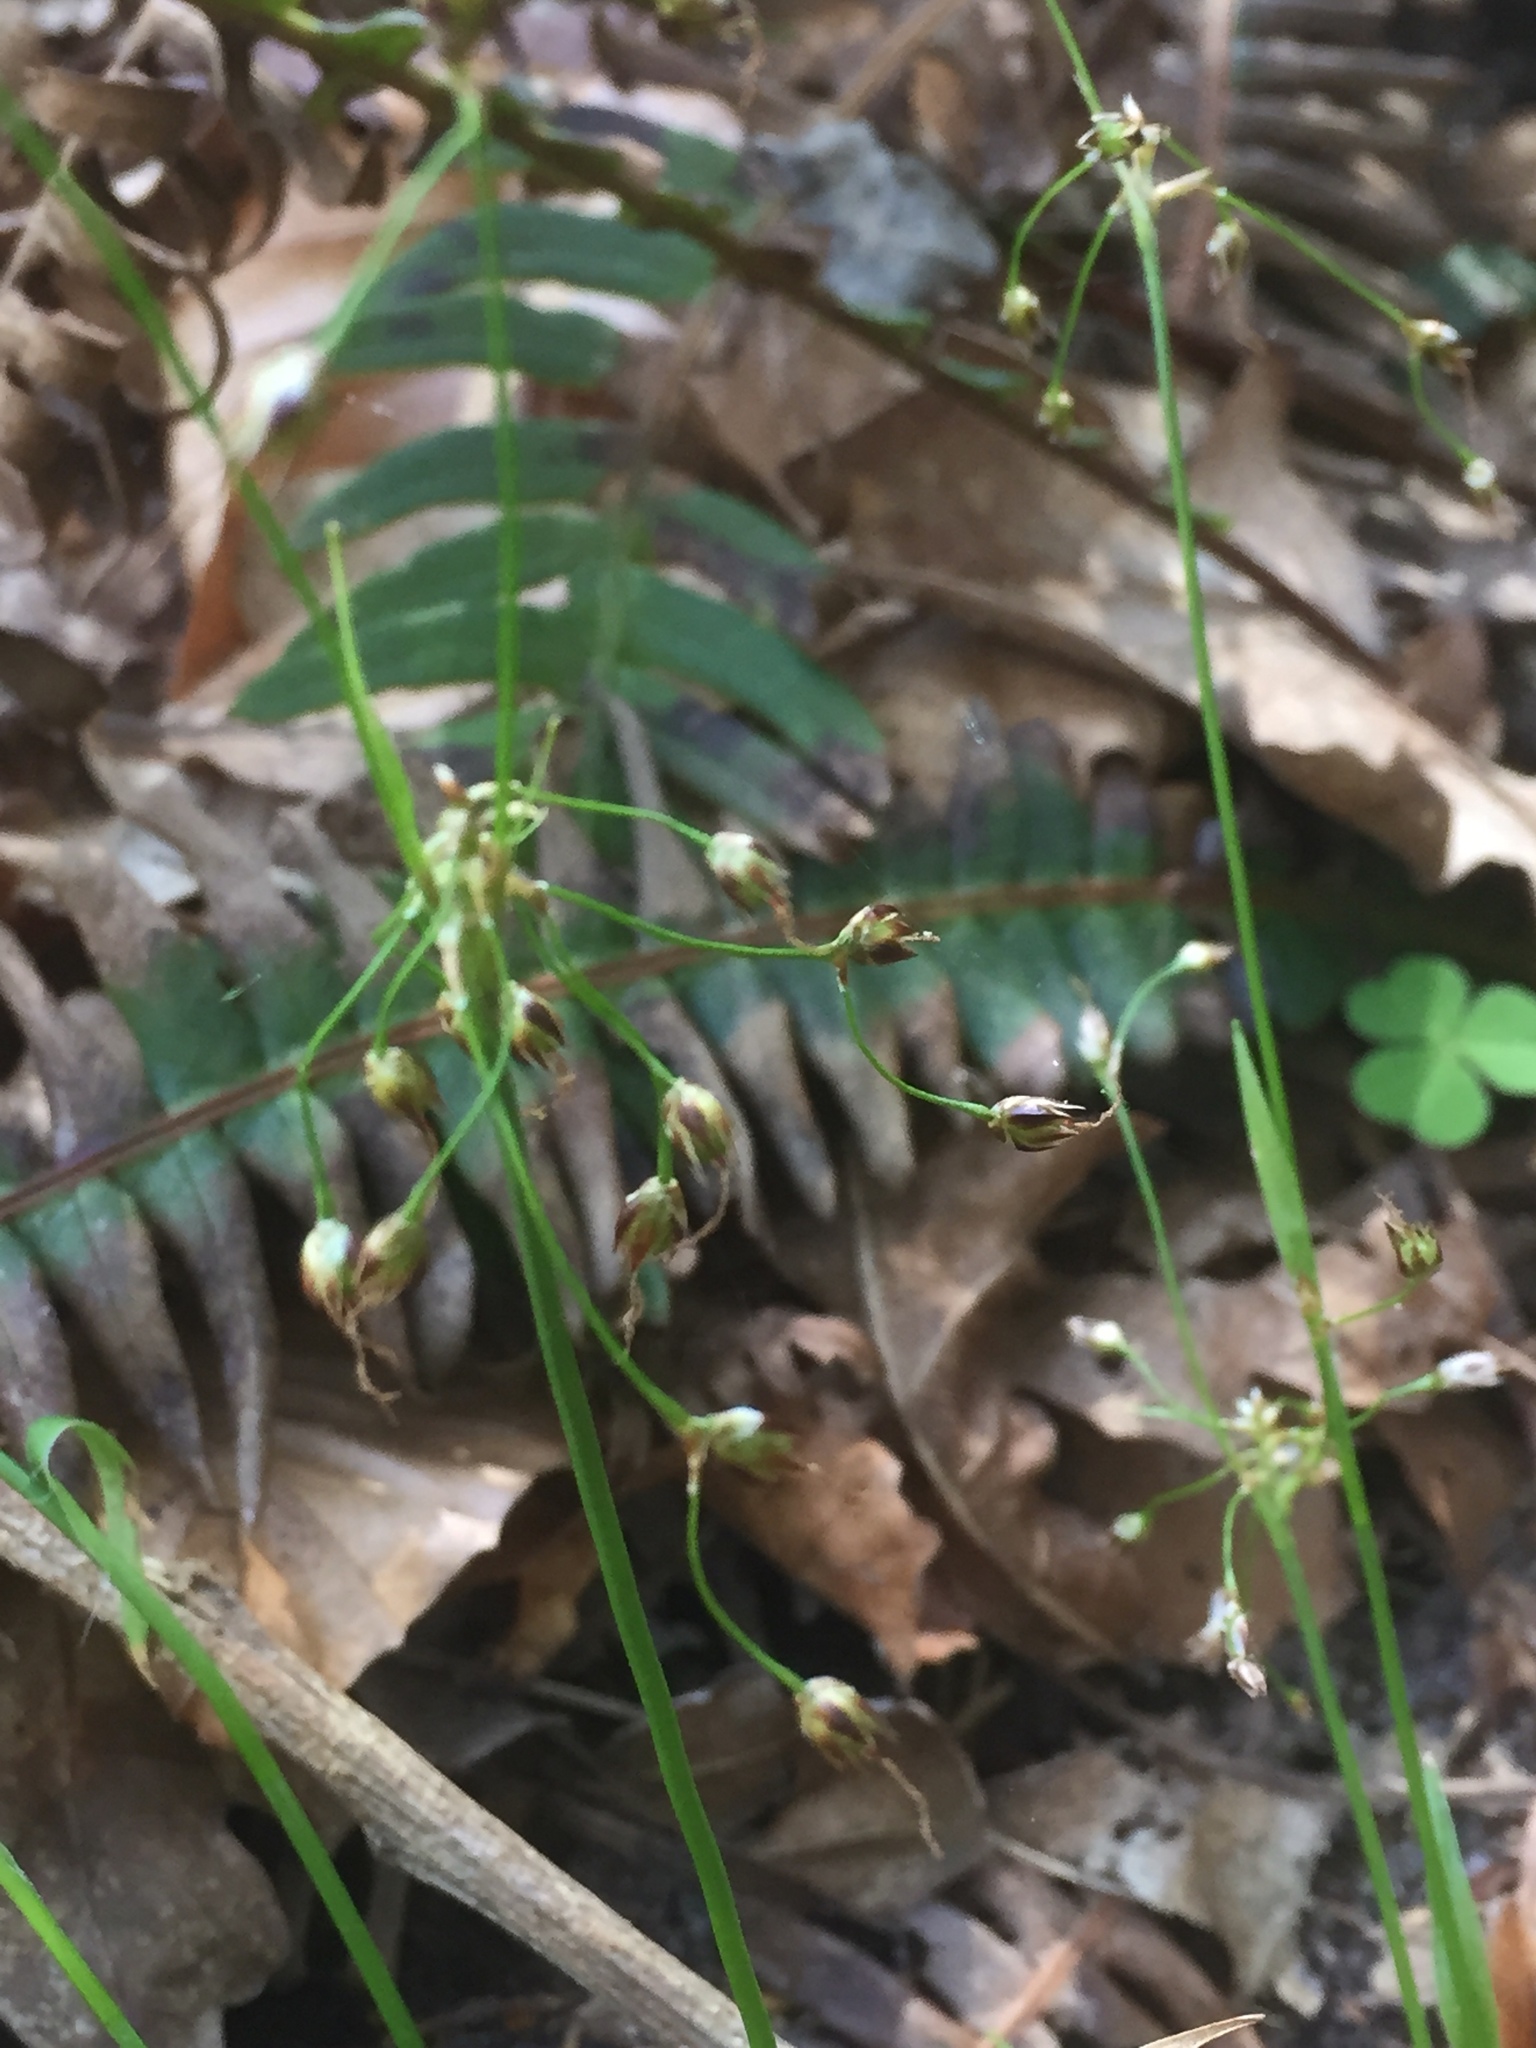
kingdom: Plantae
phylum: Tracheophyta
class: Polypodiopsida
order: Polypodiales
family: Blechnaceae
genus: Struthiopteris
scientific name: Struthiopteris spicant
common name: Deer fern
